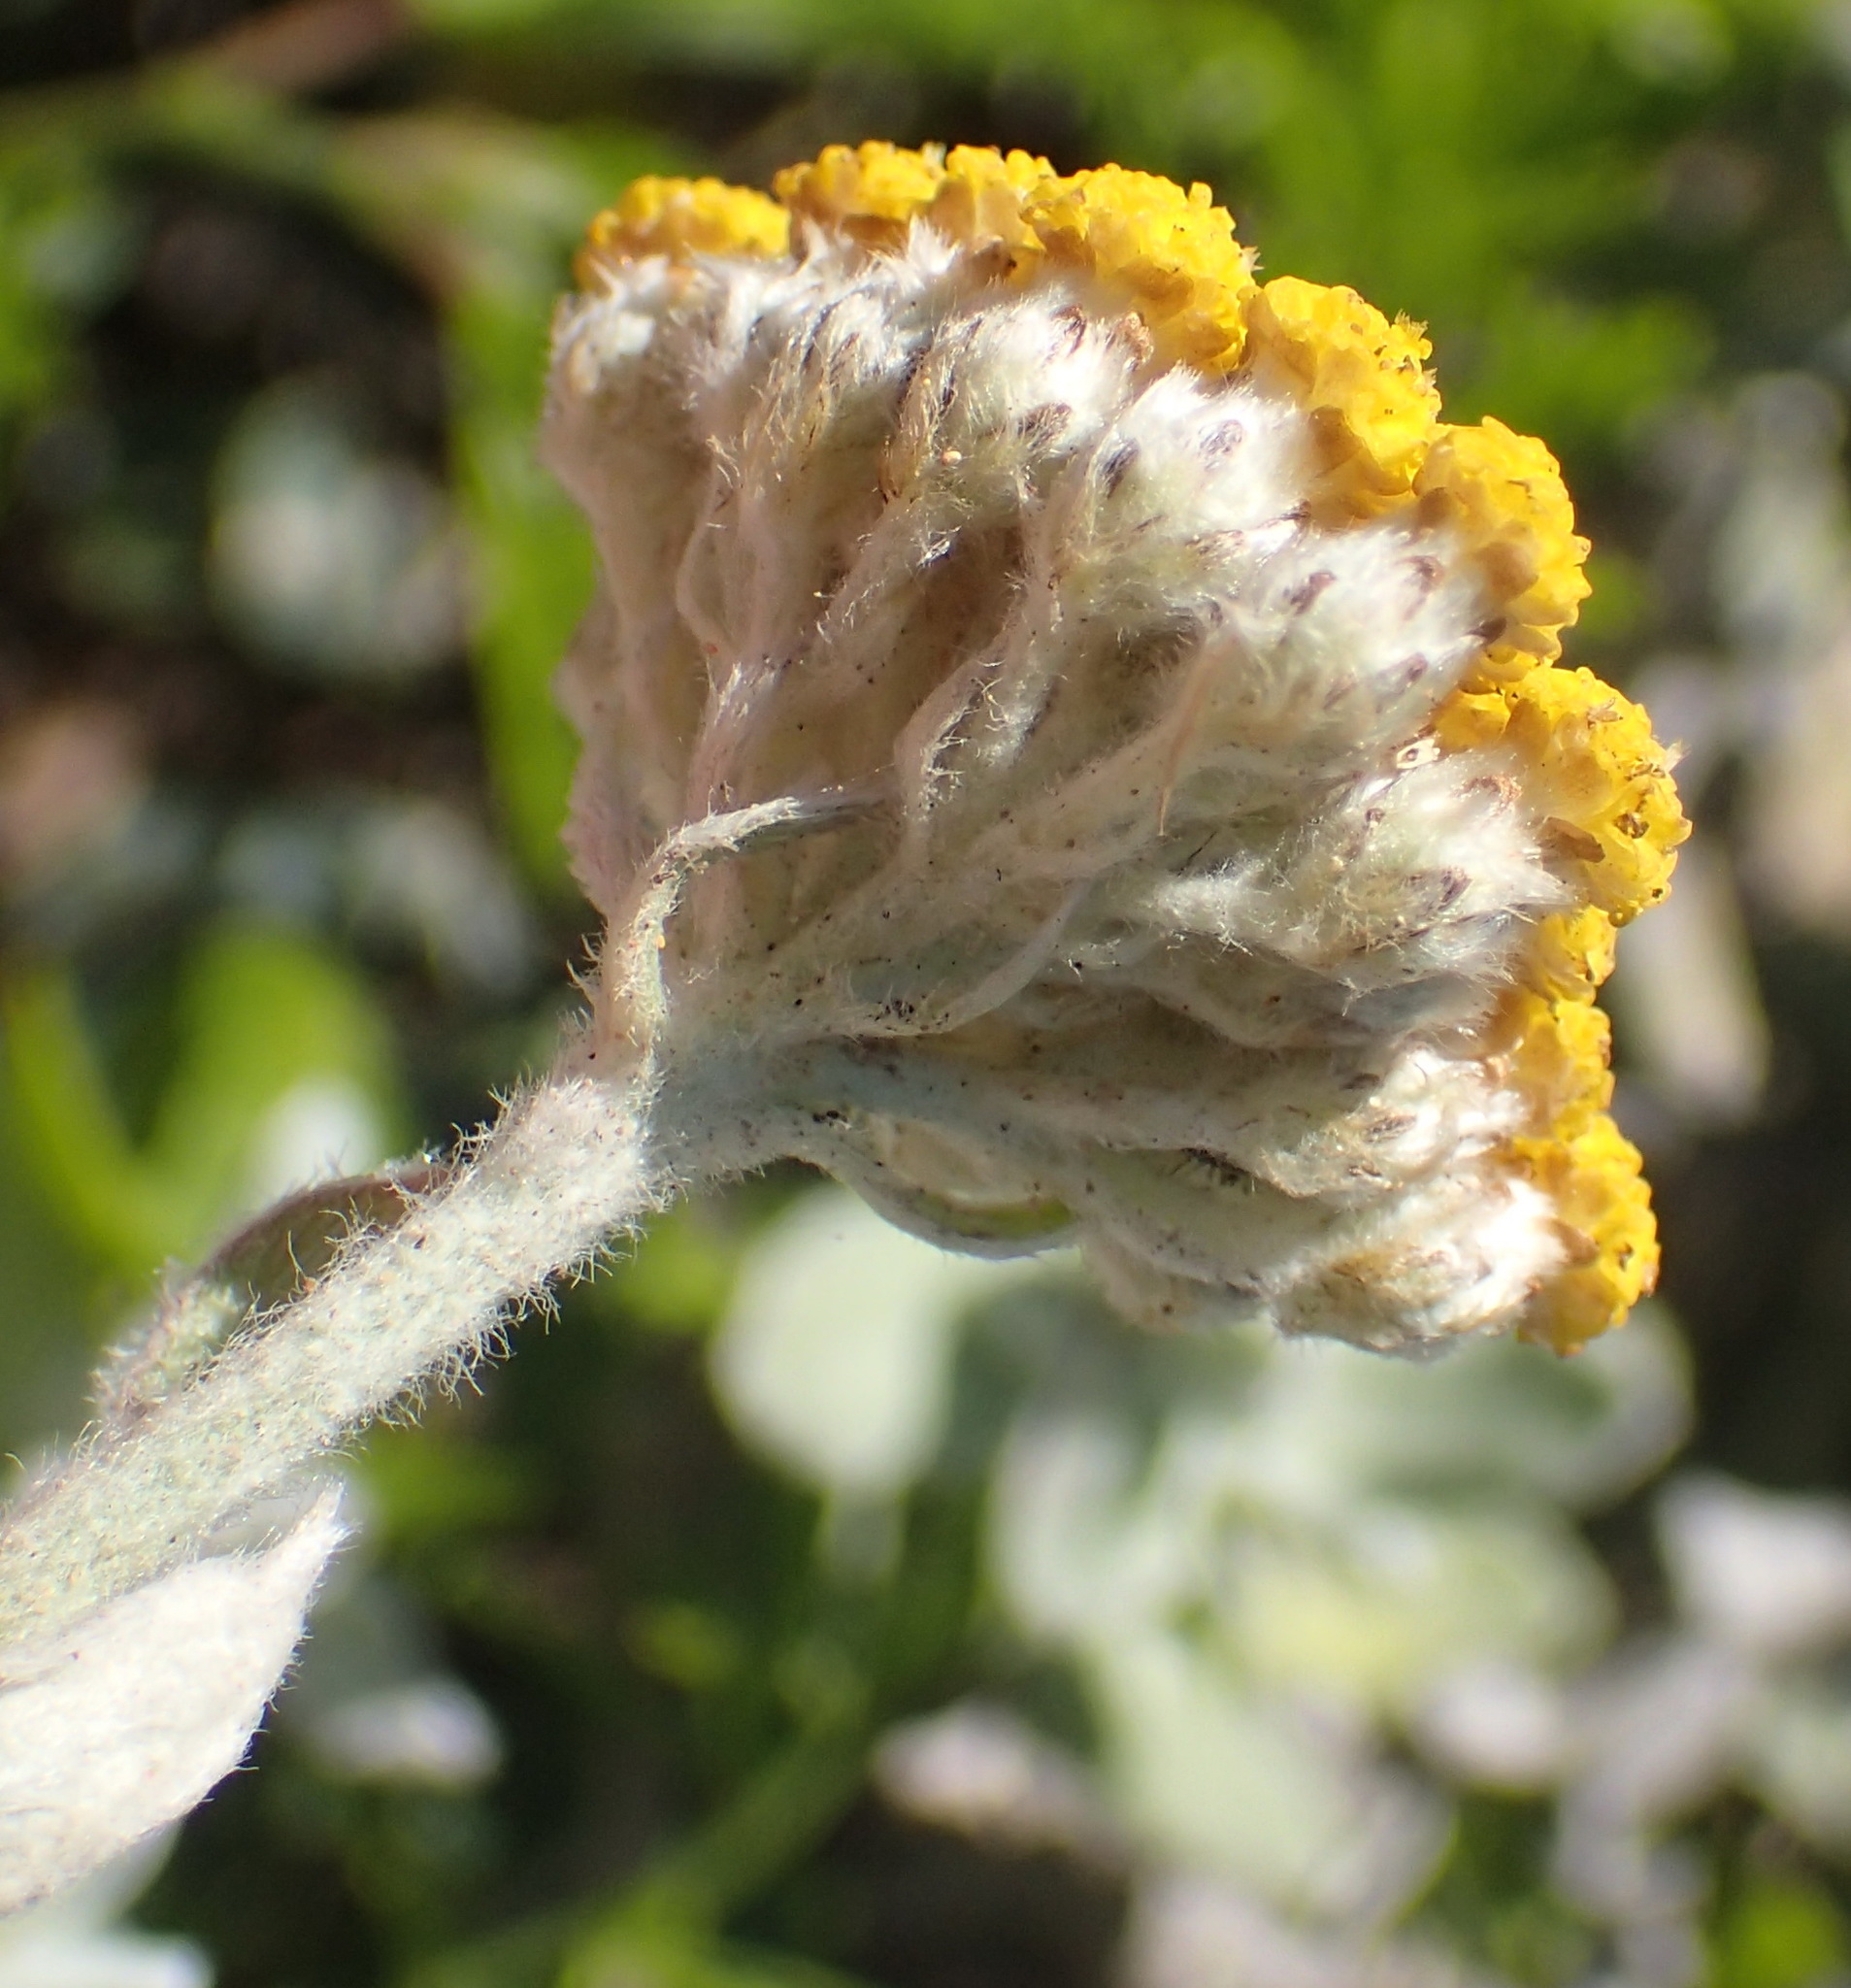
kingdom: Plantae
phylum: Tracheophyta
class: Magnoliopsida
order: Asterales
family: Asteraceae
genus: Helichrysum
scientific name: Helichrysum dasyanthum
